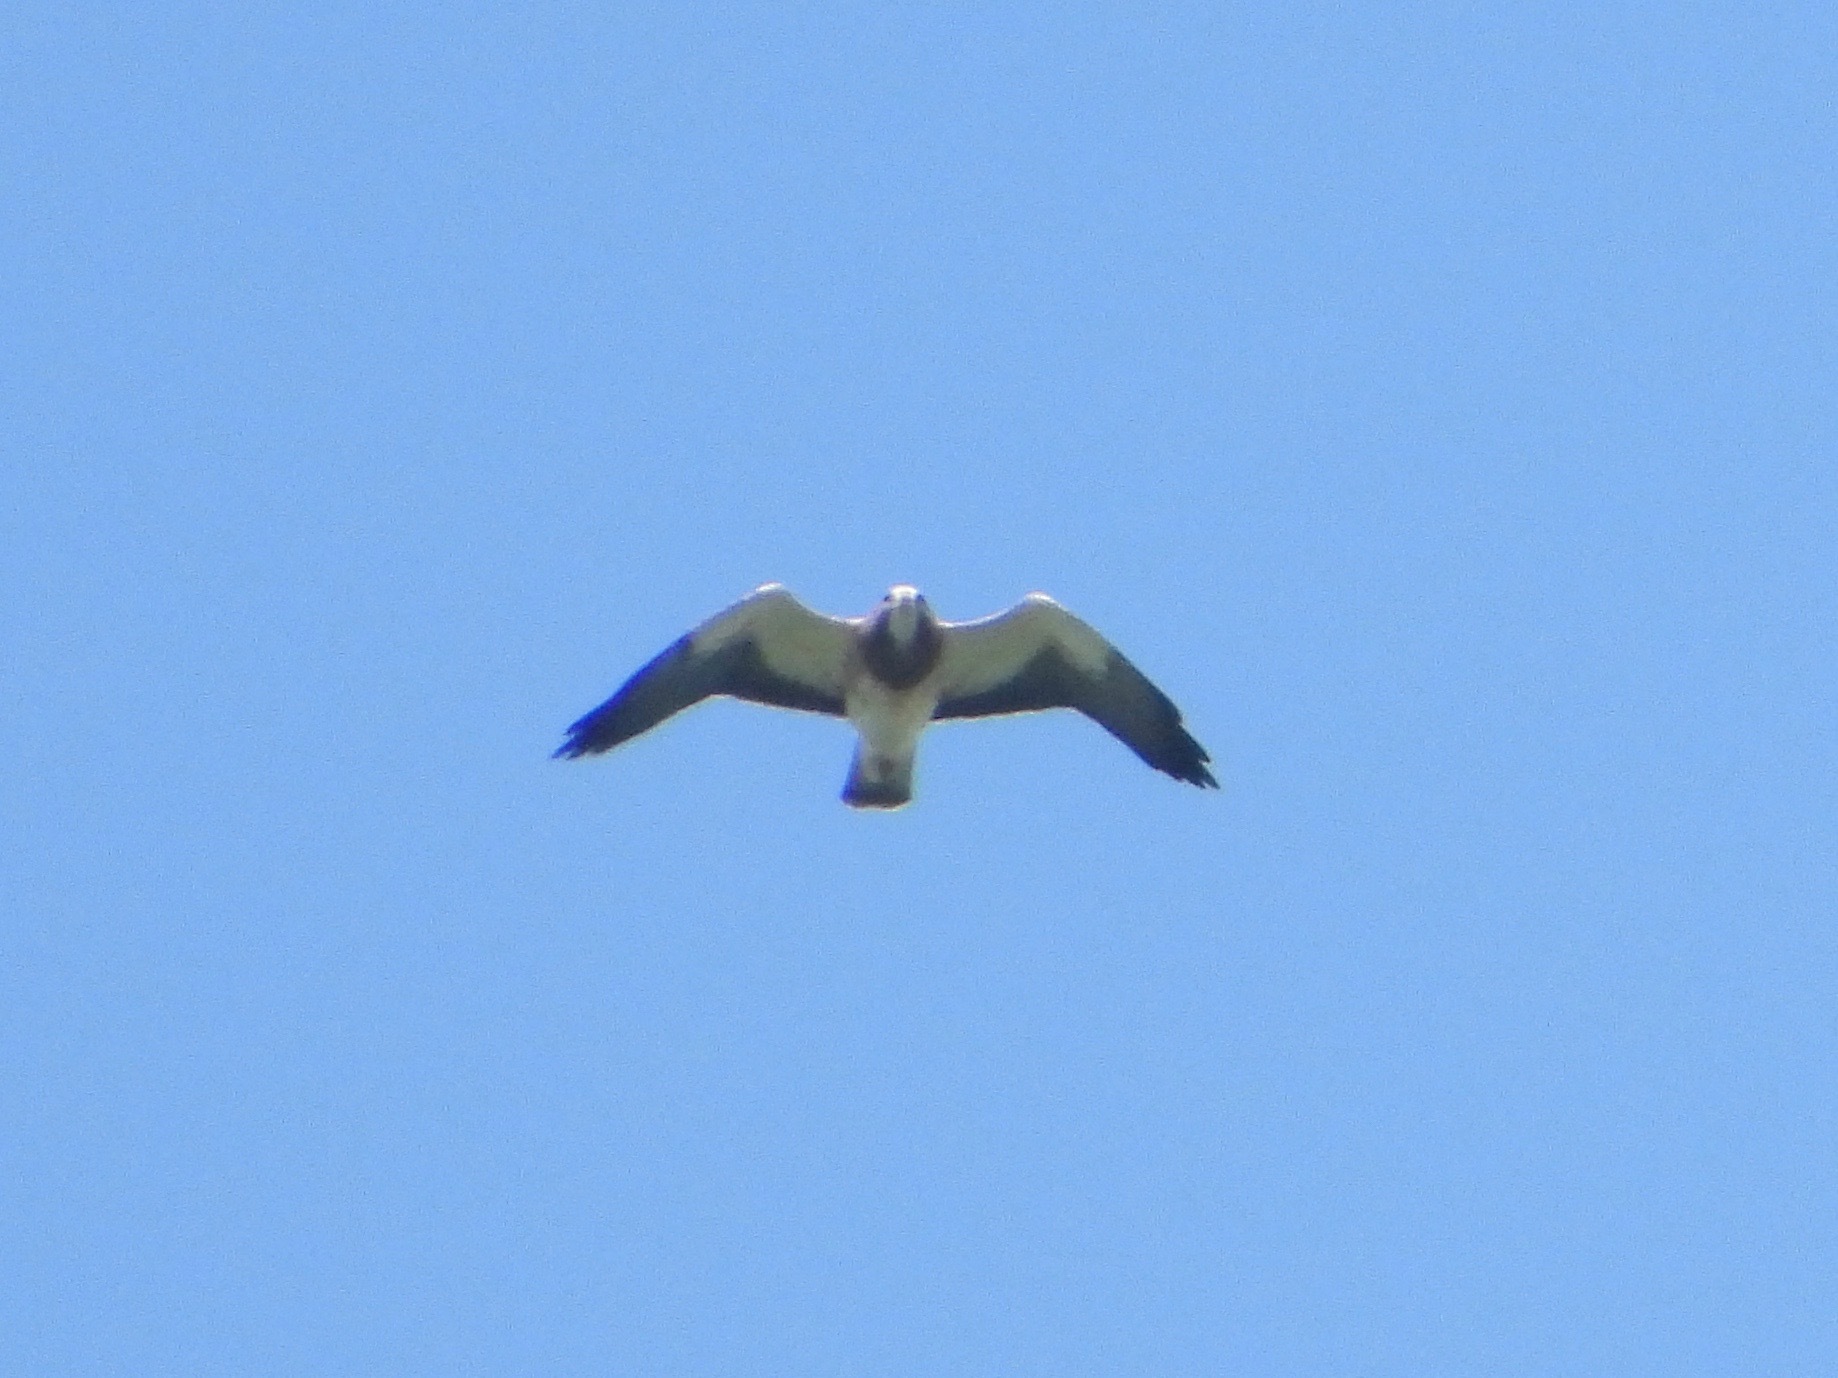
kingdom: Animalia
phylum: Chordata
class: Aves
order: Accipitriformes
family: Accipitridae
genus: Buteo
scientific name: Buteo swainsoni
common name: Swainson's hawk
